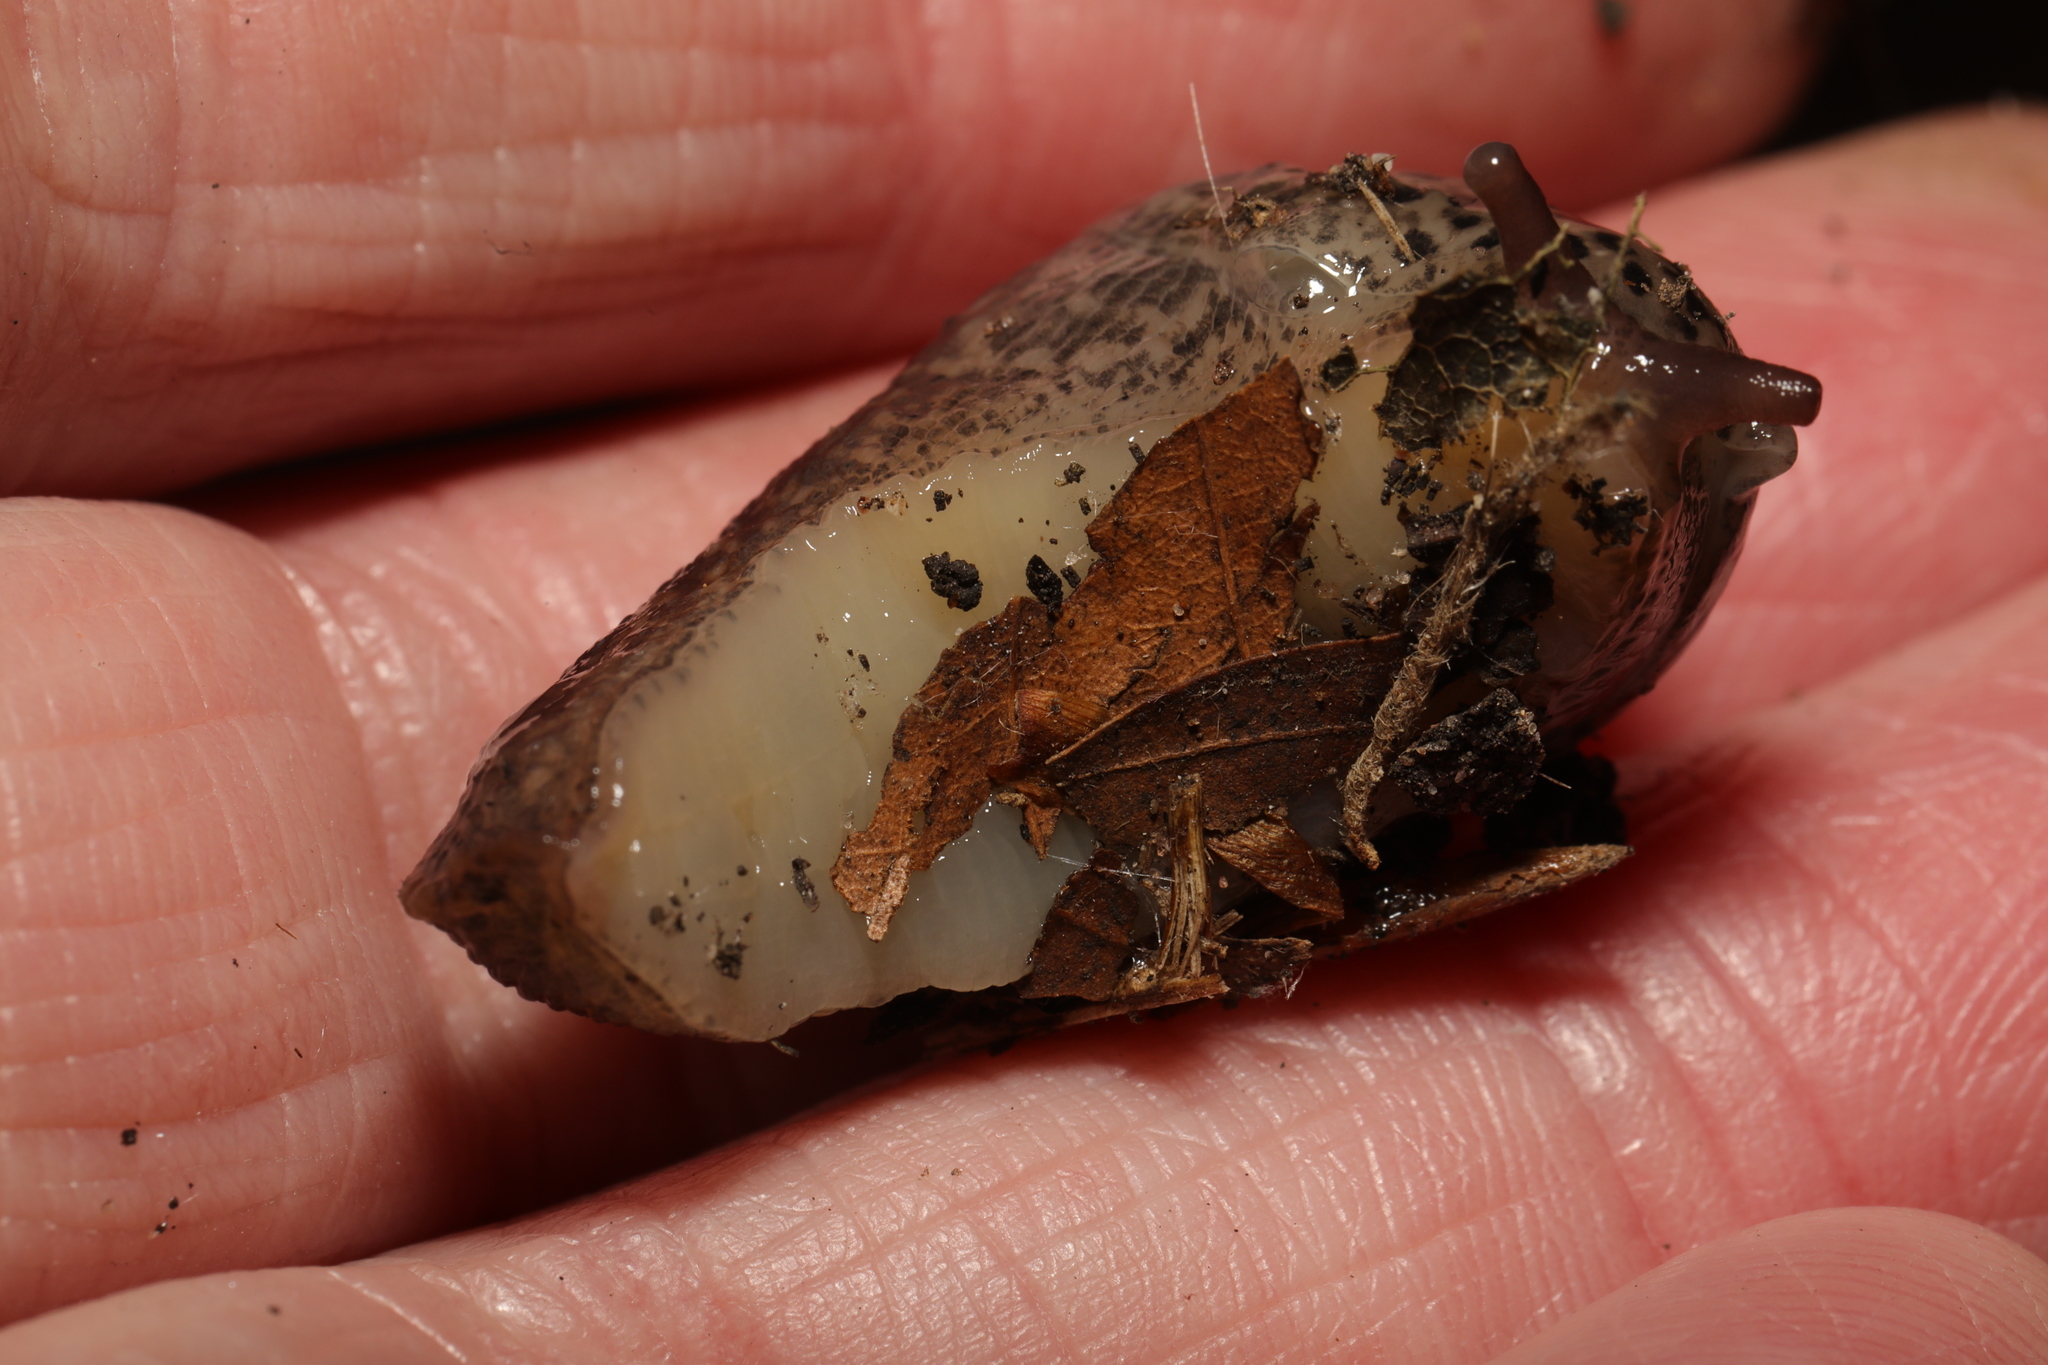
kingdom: Animalia
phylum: Mollusca
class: Gastropoda
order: Stylommatophora
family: Limacidae
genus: Limax
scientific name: Limax maximus
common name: Great grey slug
